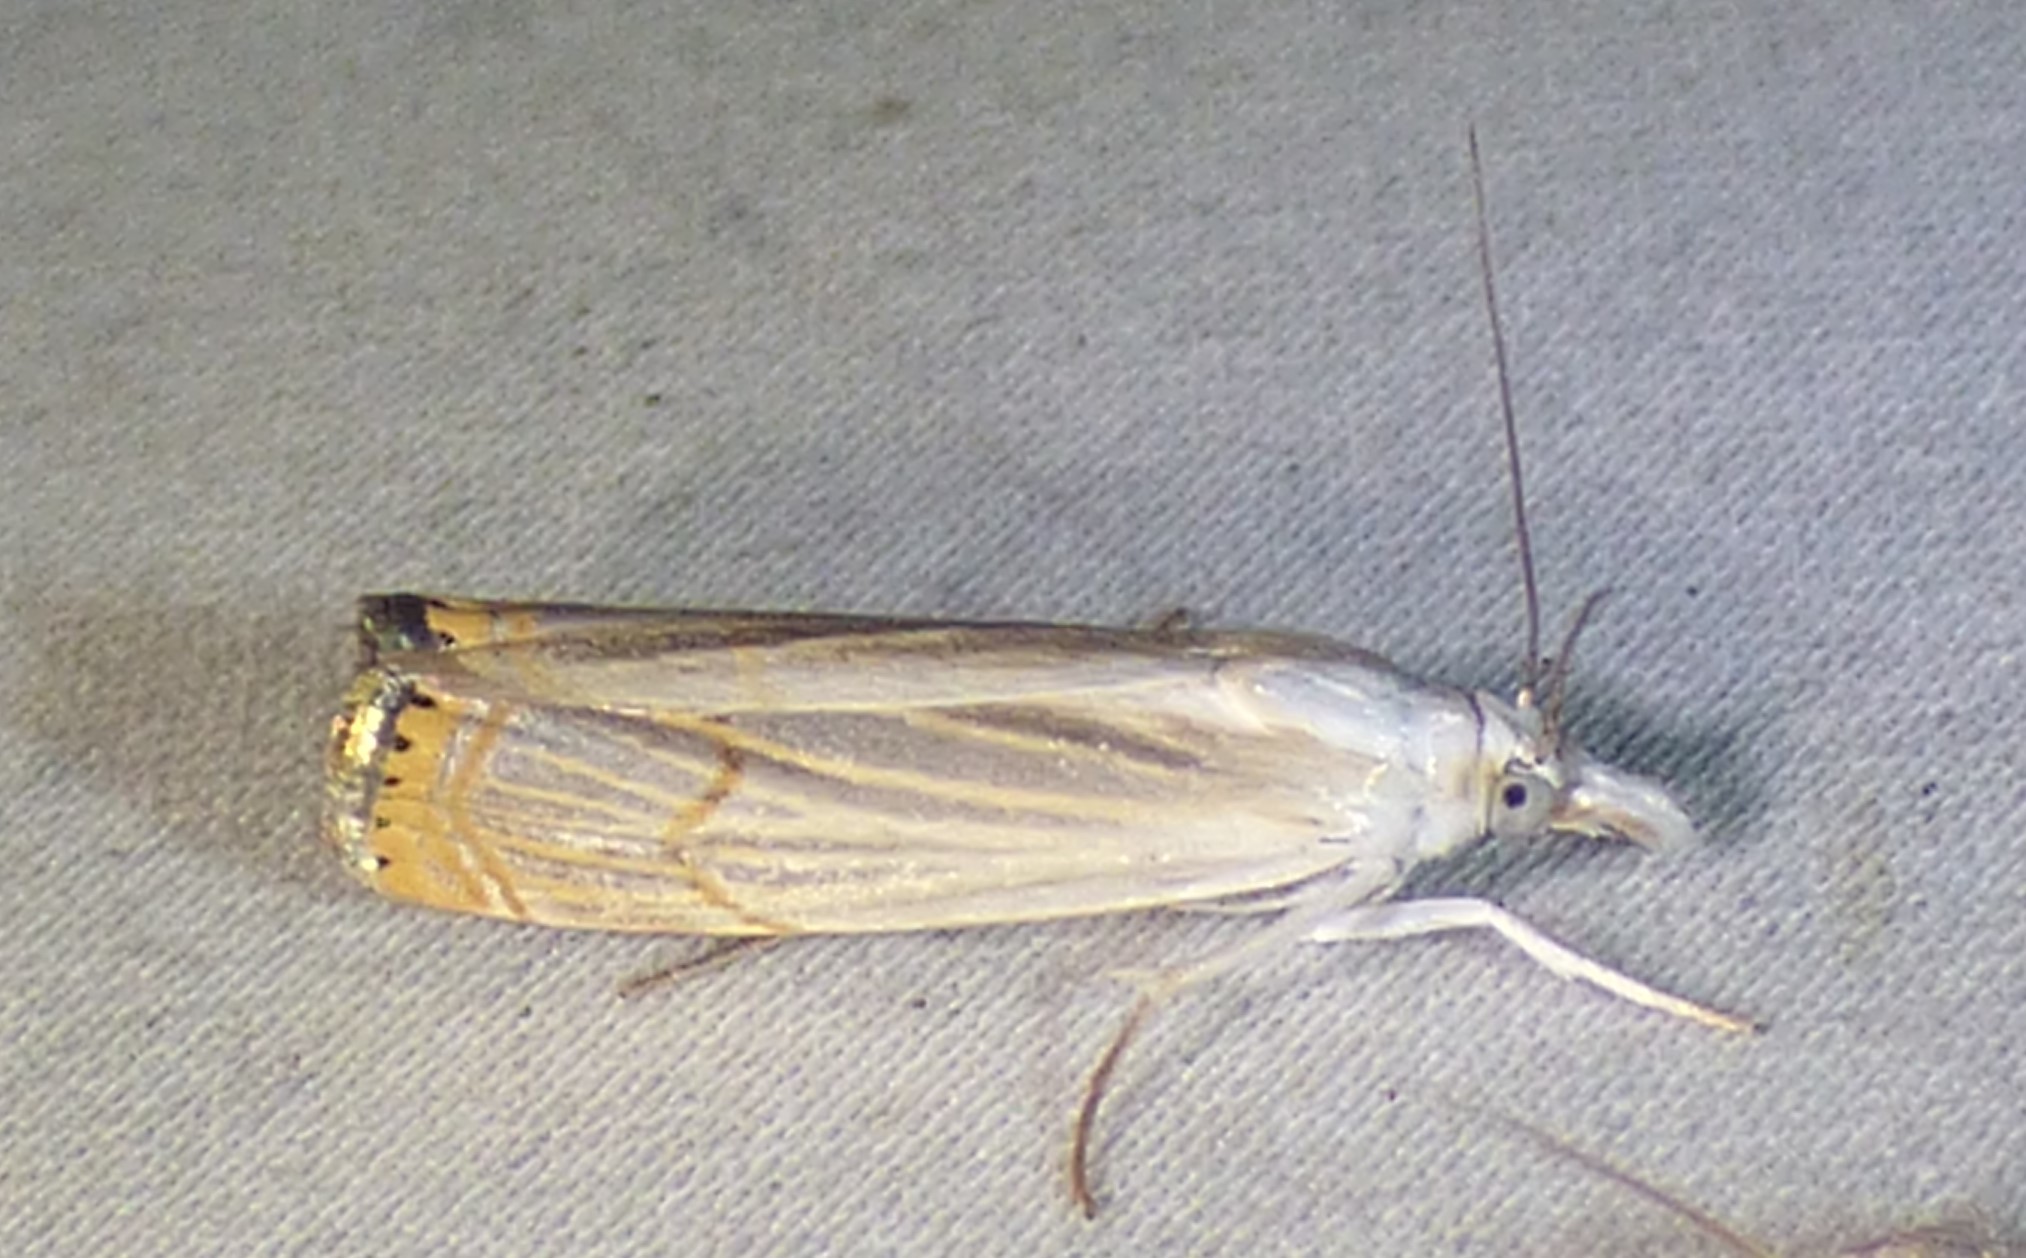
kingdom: Animalia
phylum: Arthropoda
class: Insecta
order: Lepidoptera
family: Crambidae
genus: Parapediasia
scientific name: Parapediasia decorellus
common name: Graceful grass-veneer
